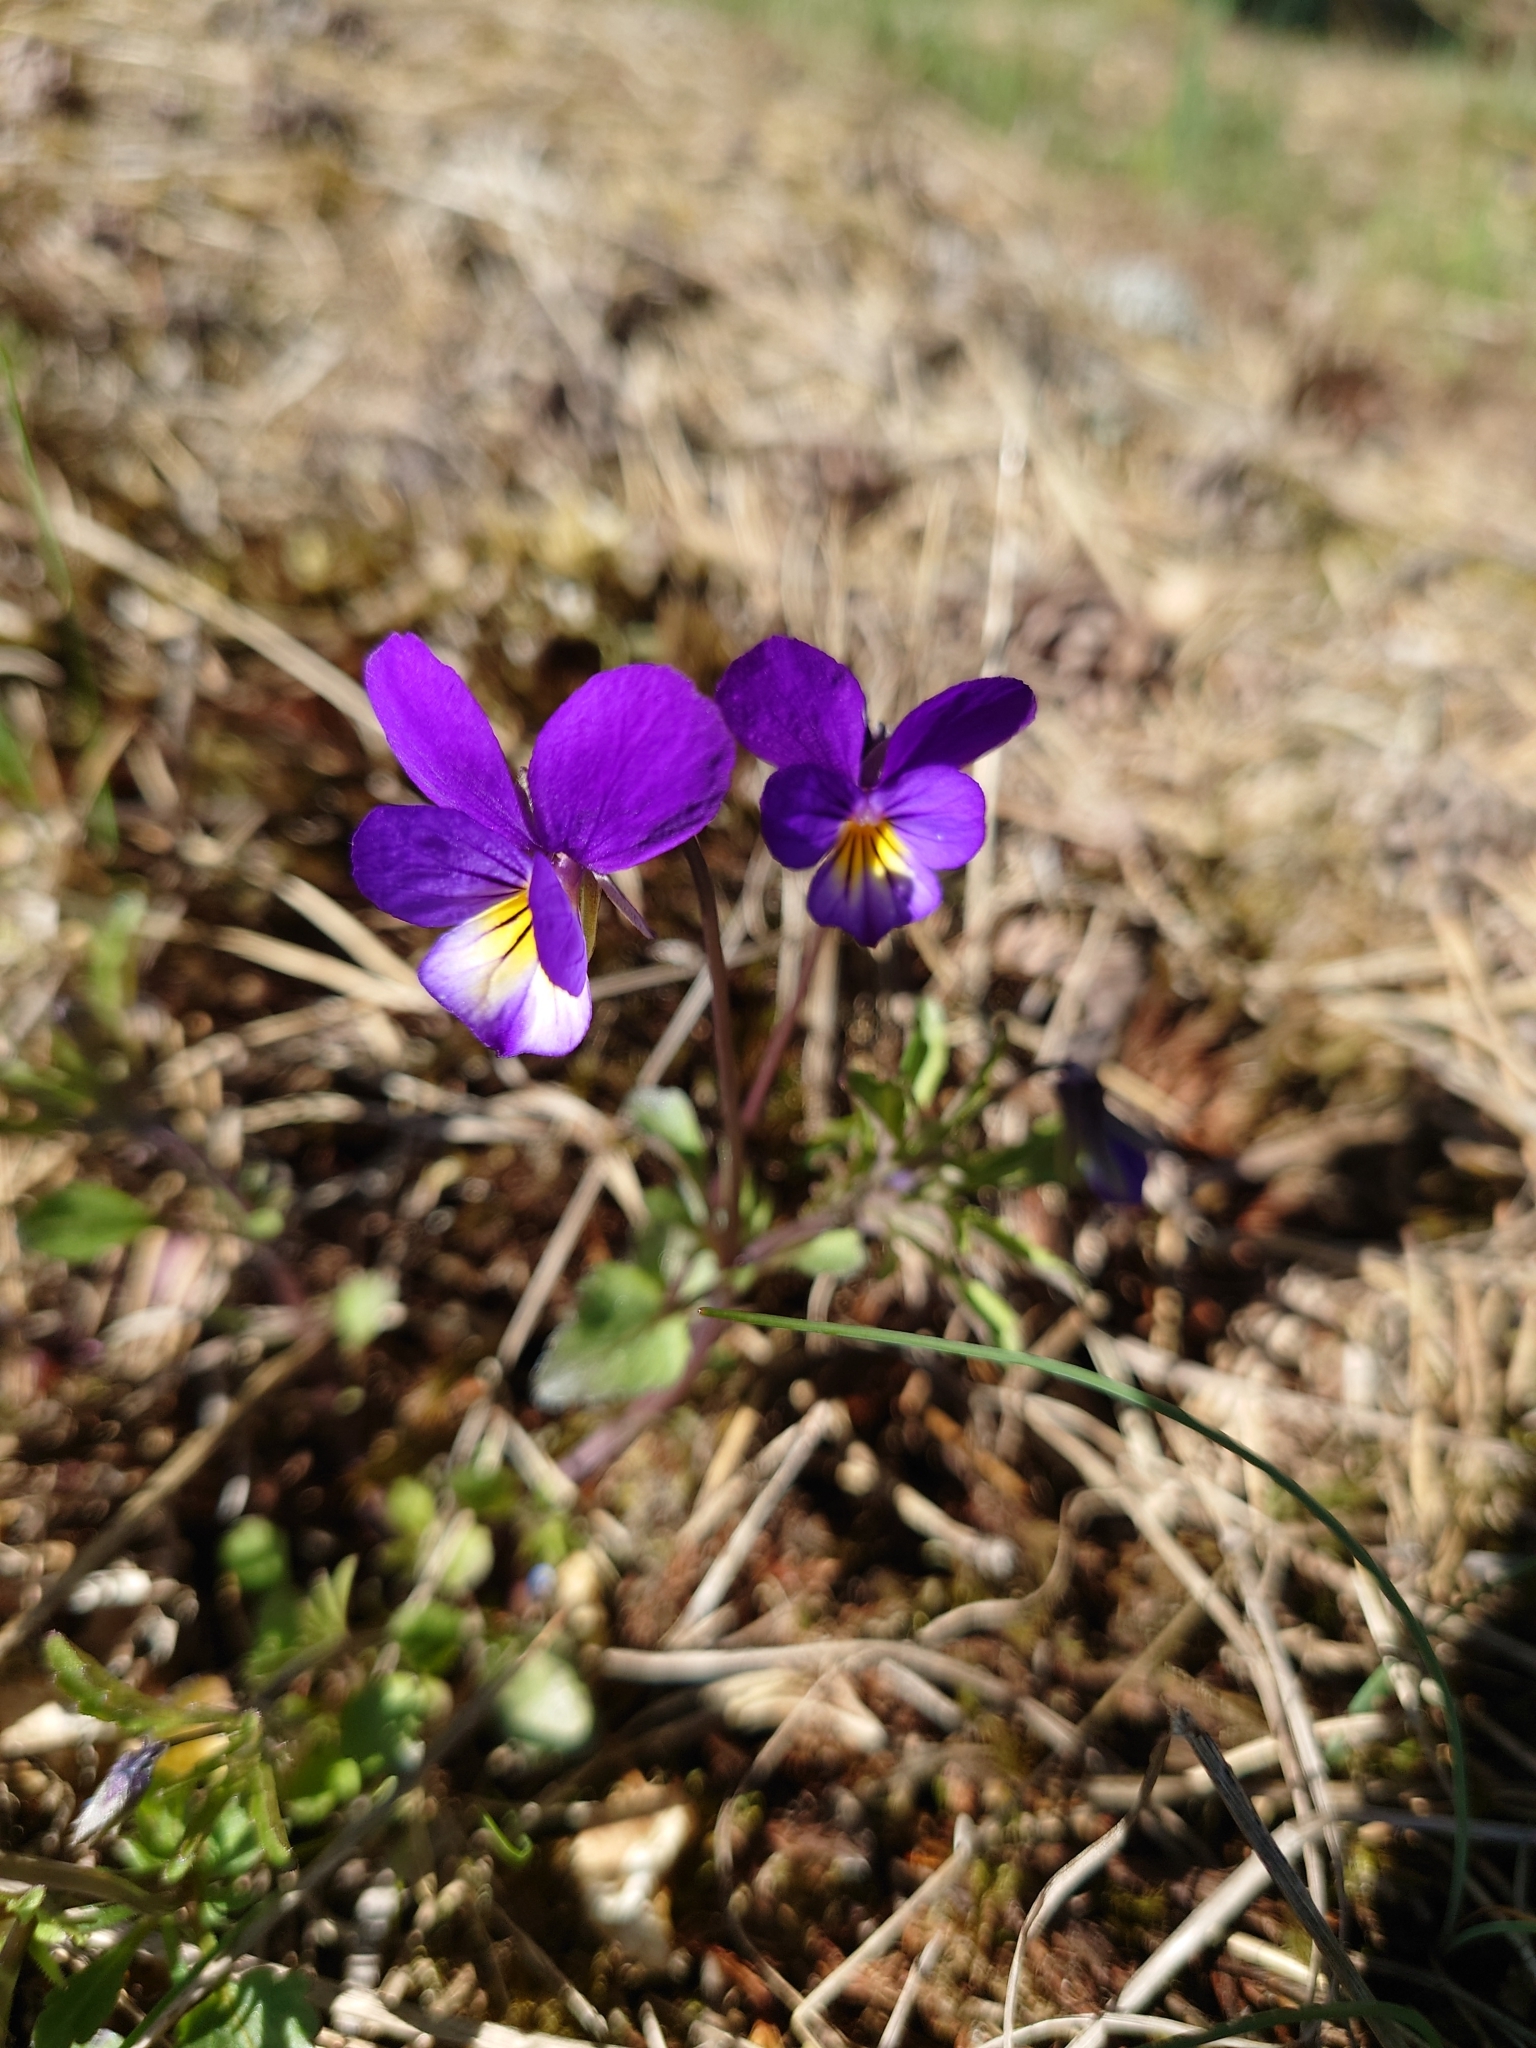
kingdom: Plantae
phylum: Tracheophyta
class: Magnoliopsida
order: Malpighiales
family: Violaceae
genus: Viola
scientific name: Viola tricolor
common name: Pansy
